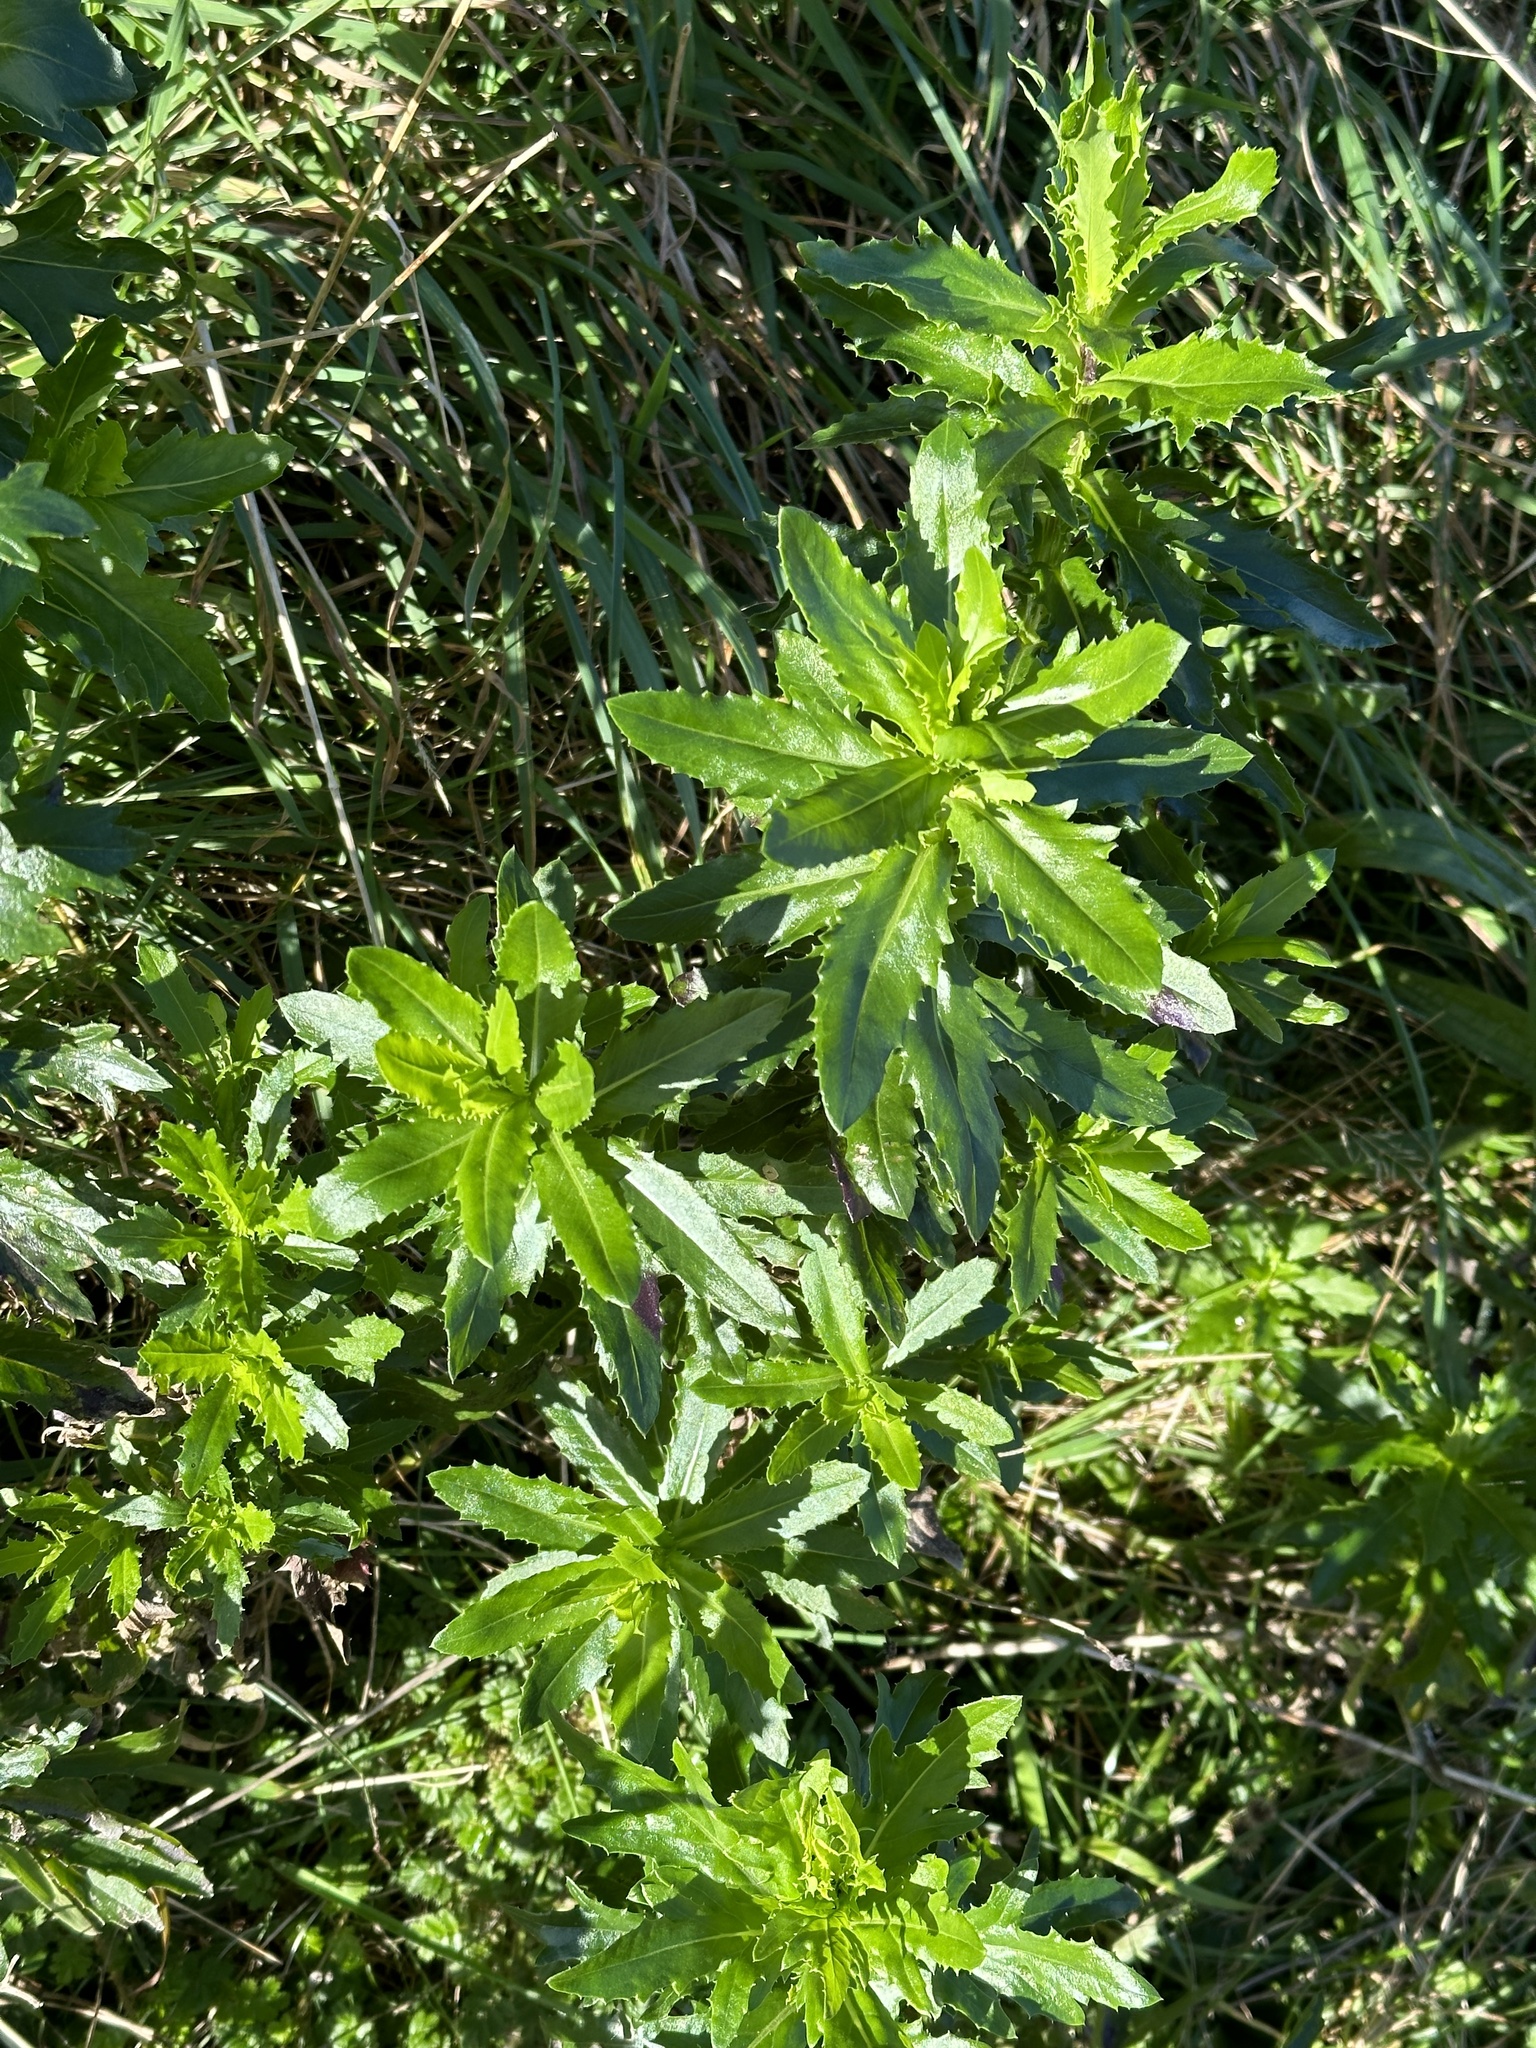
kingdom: Plantae
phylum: Tracheophyta
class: Magnoliopsida
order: Asterales
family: Asteraceae
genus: Senecio
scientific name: Senecio glastifolius
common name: Woad-leaved ragwort
